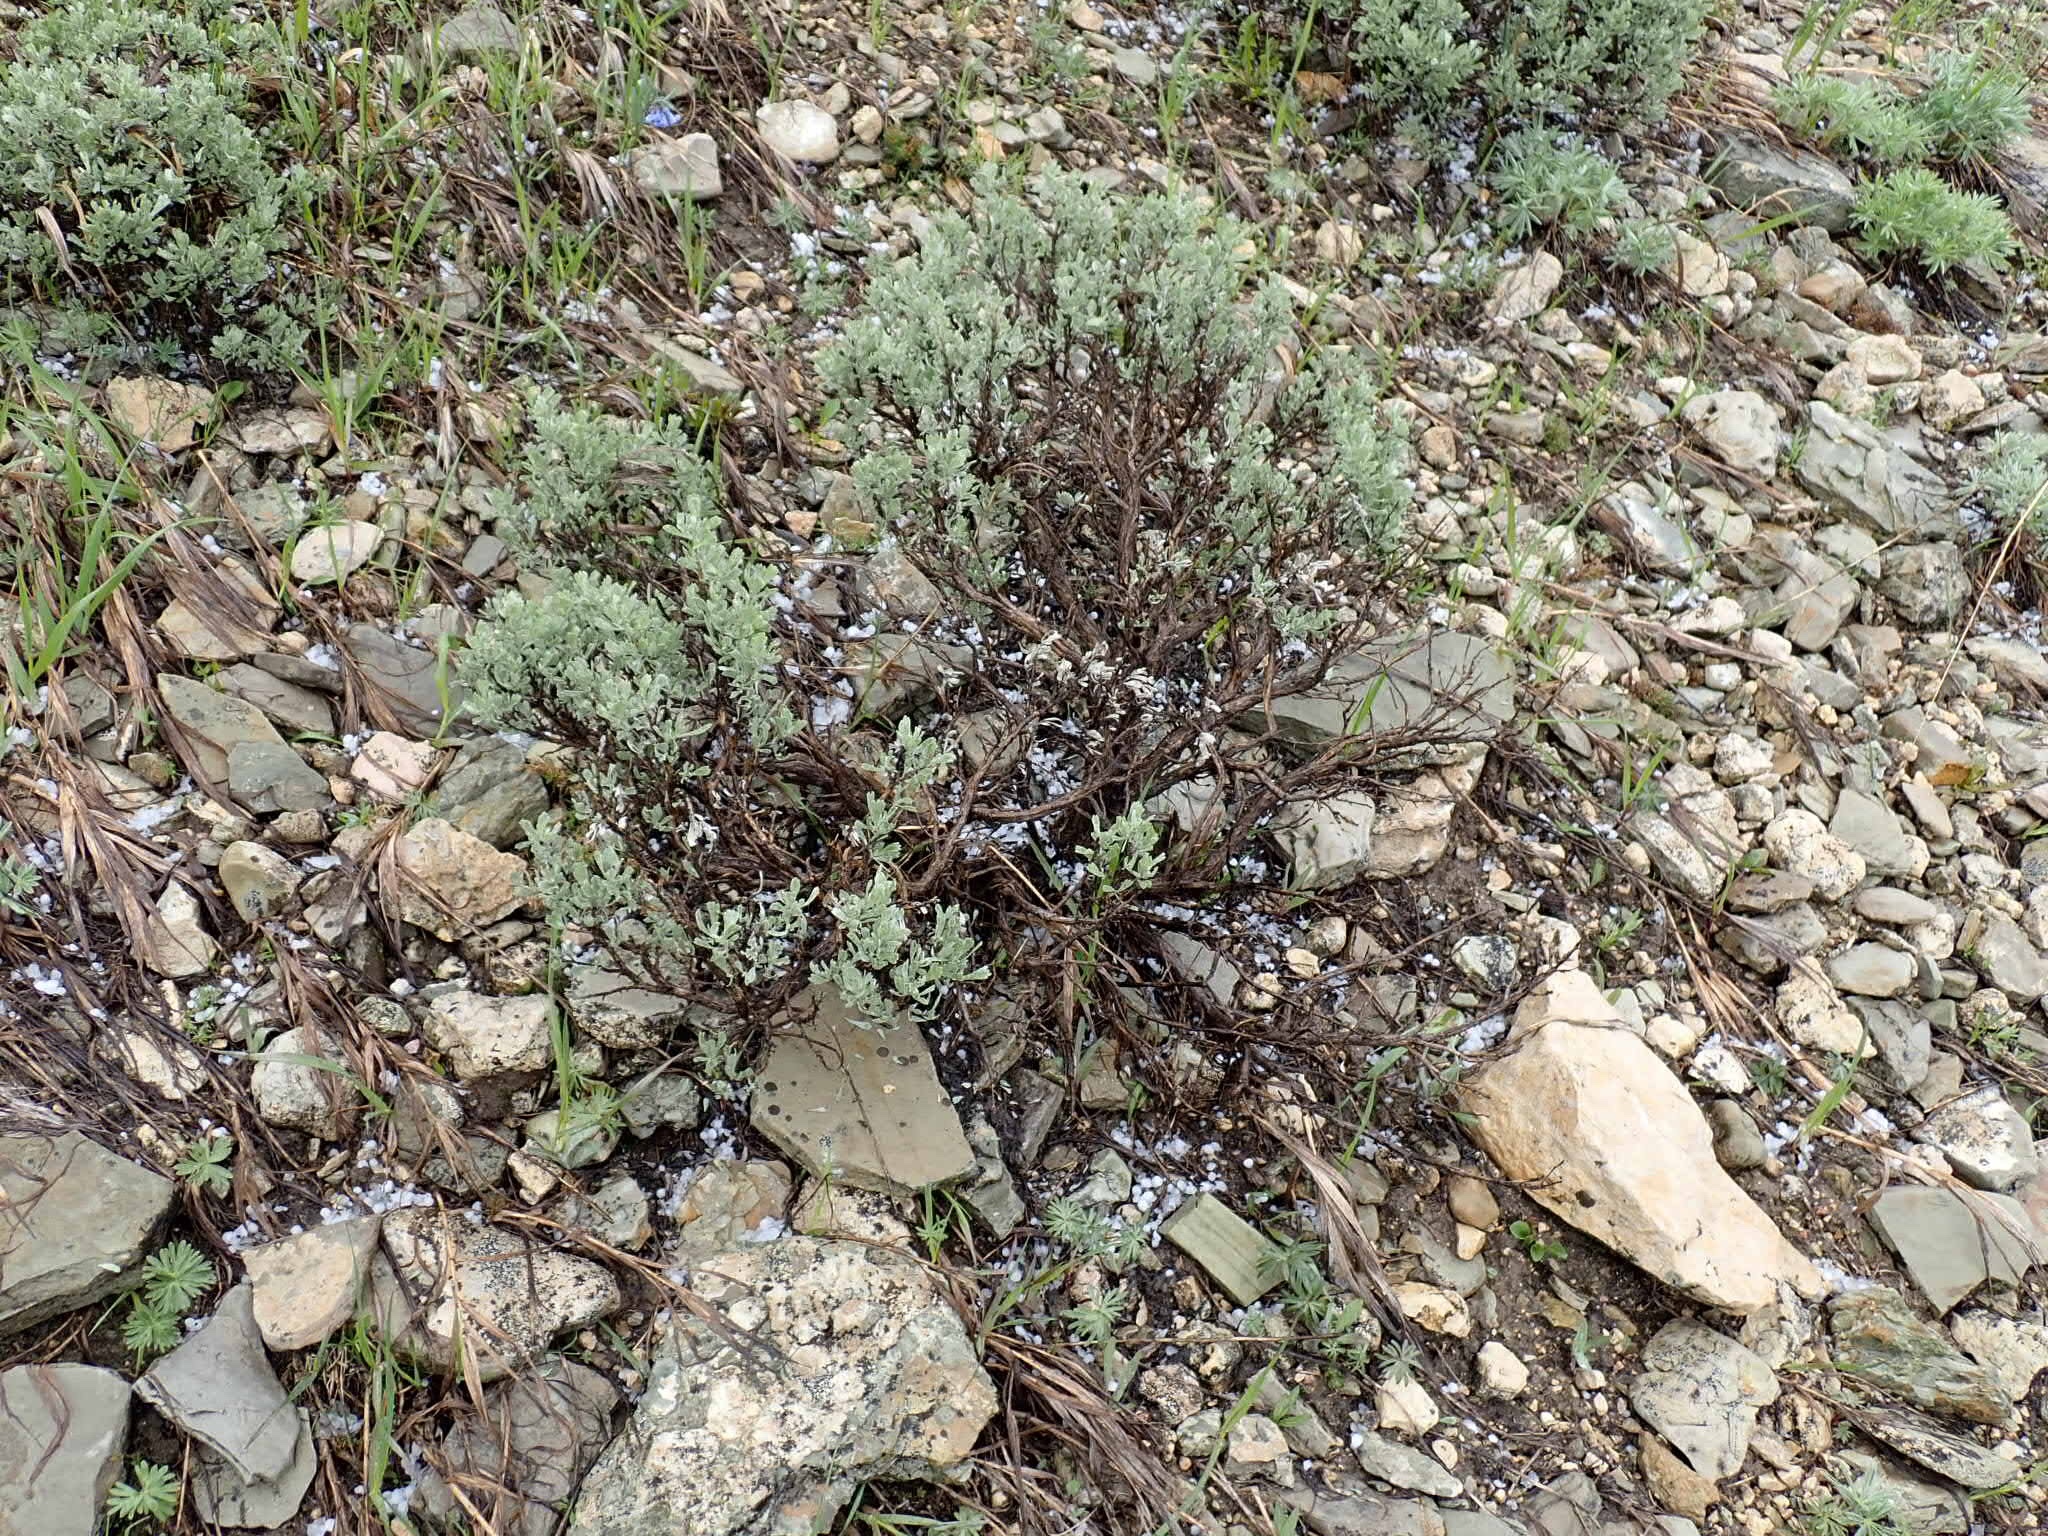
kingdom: Plantae
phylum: Tracheophyta
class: Magnoliopsida
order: Asterales
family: Asteraceae
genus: Artemisia
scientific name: Artemisia tridentata
